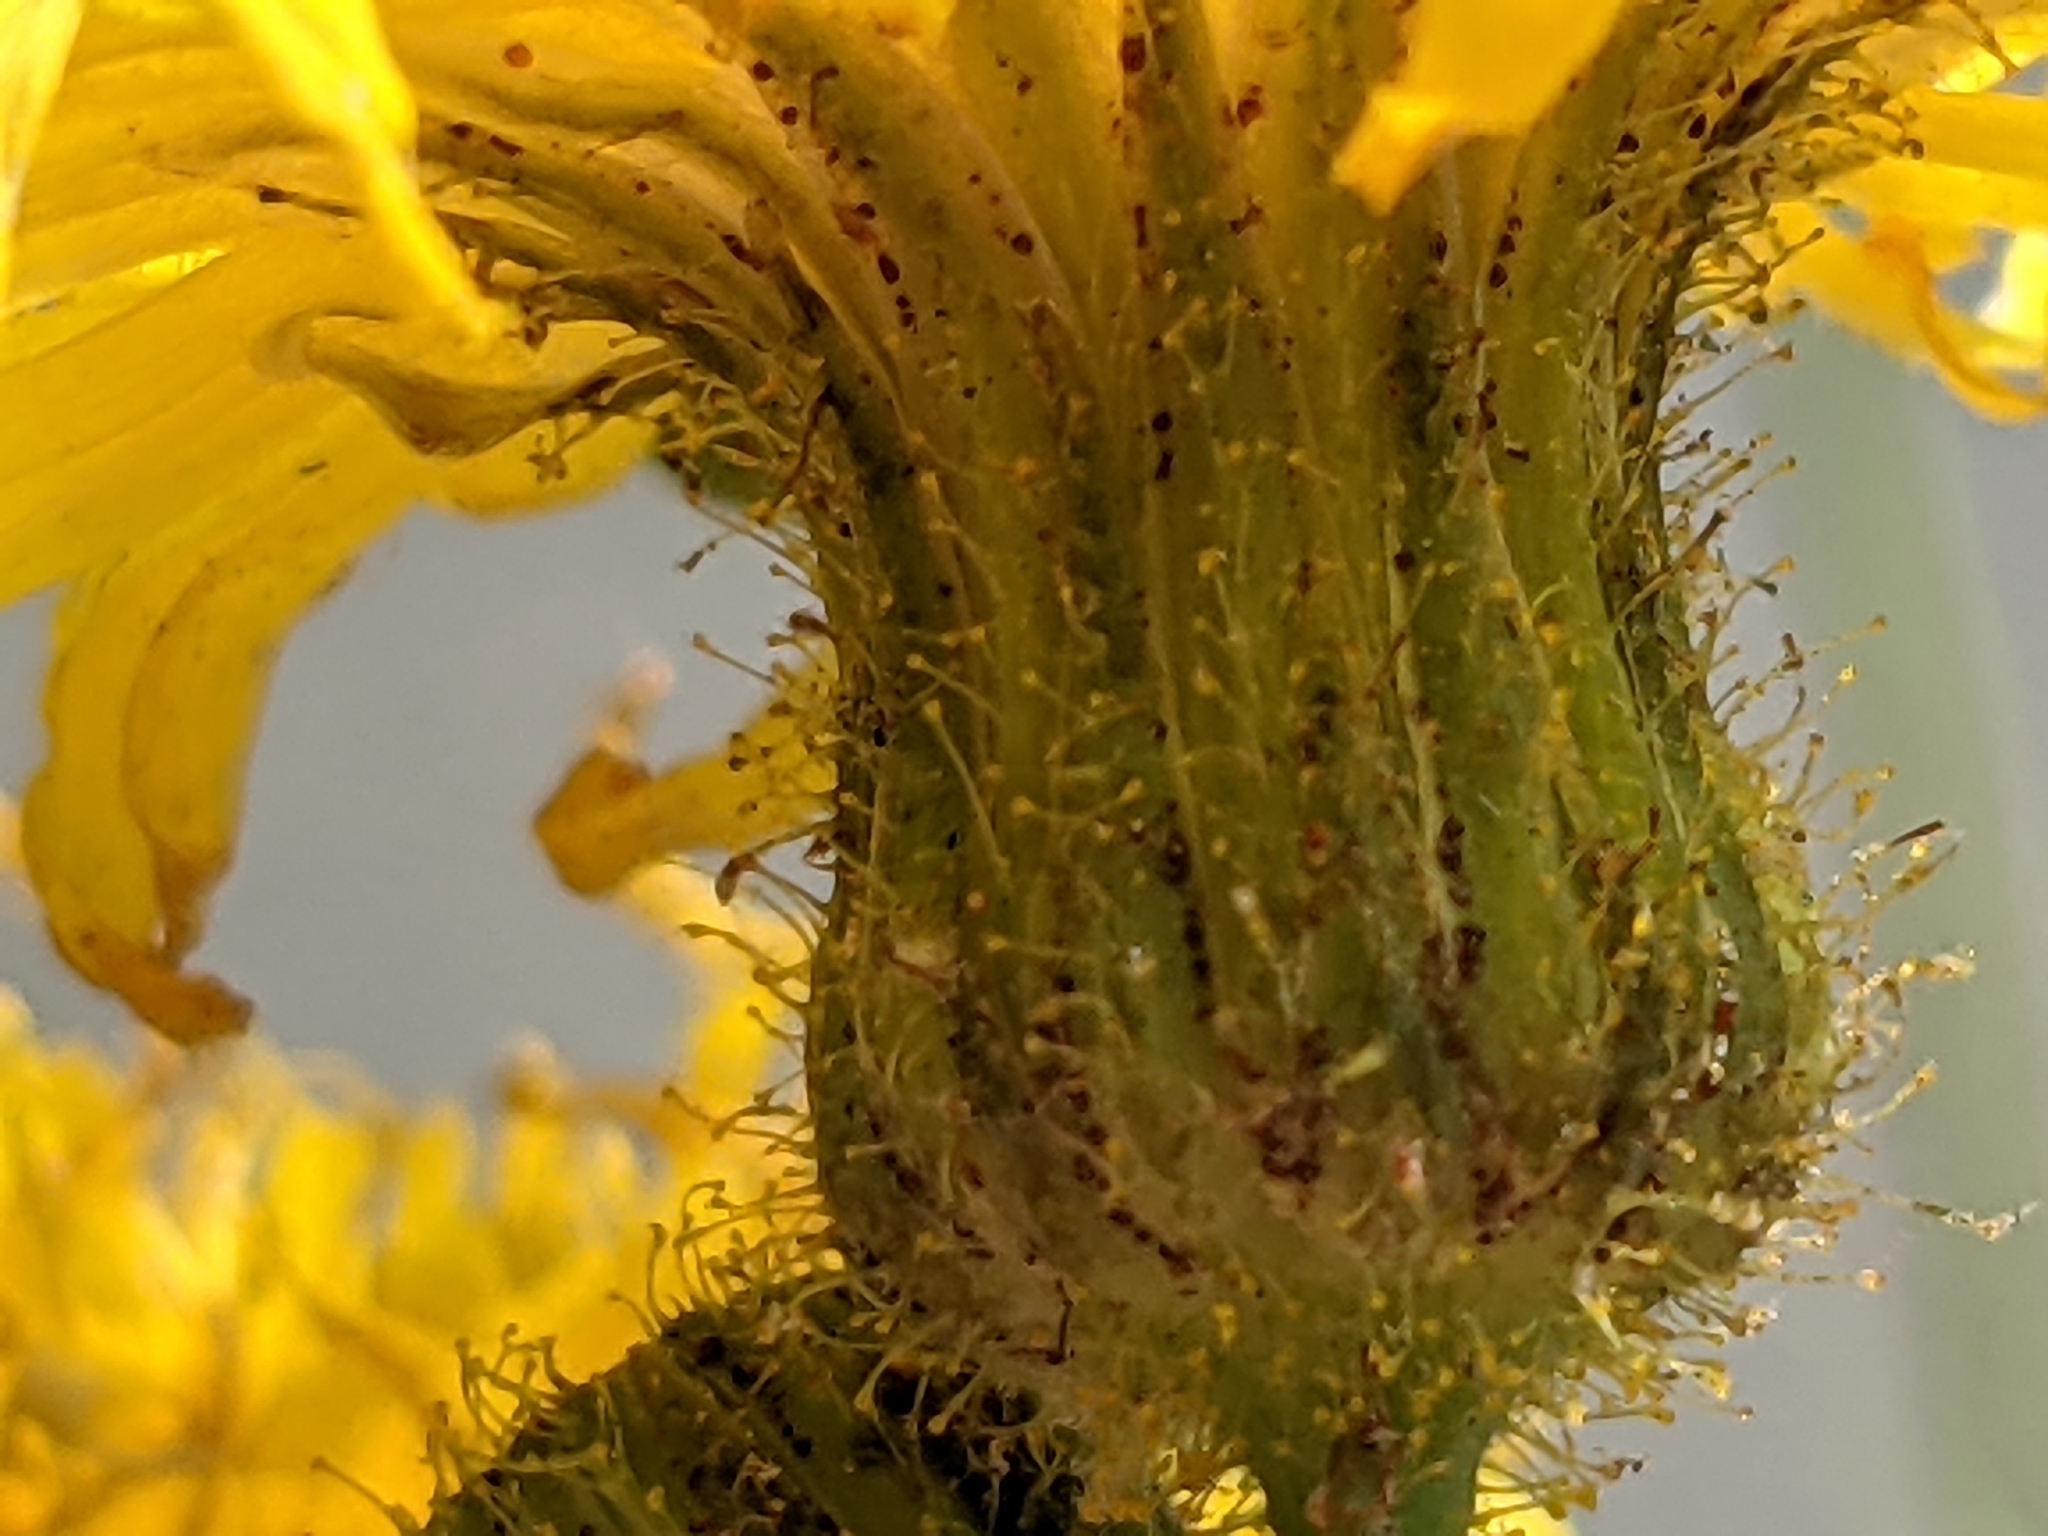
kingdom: Plantae
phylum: Tracheophyta
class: Magnoliopsida
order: Asterales
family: Asteraceae
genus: Sonchus
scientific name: Sonchus arvensis
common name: Perennial sow-thistle
